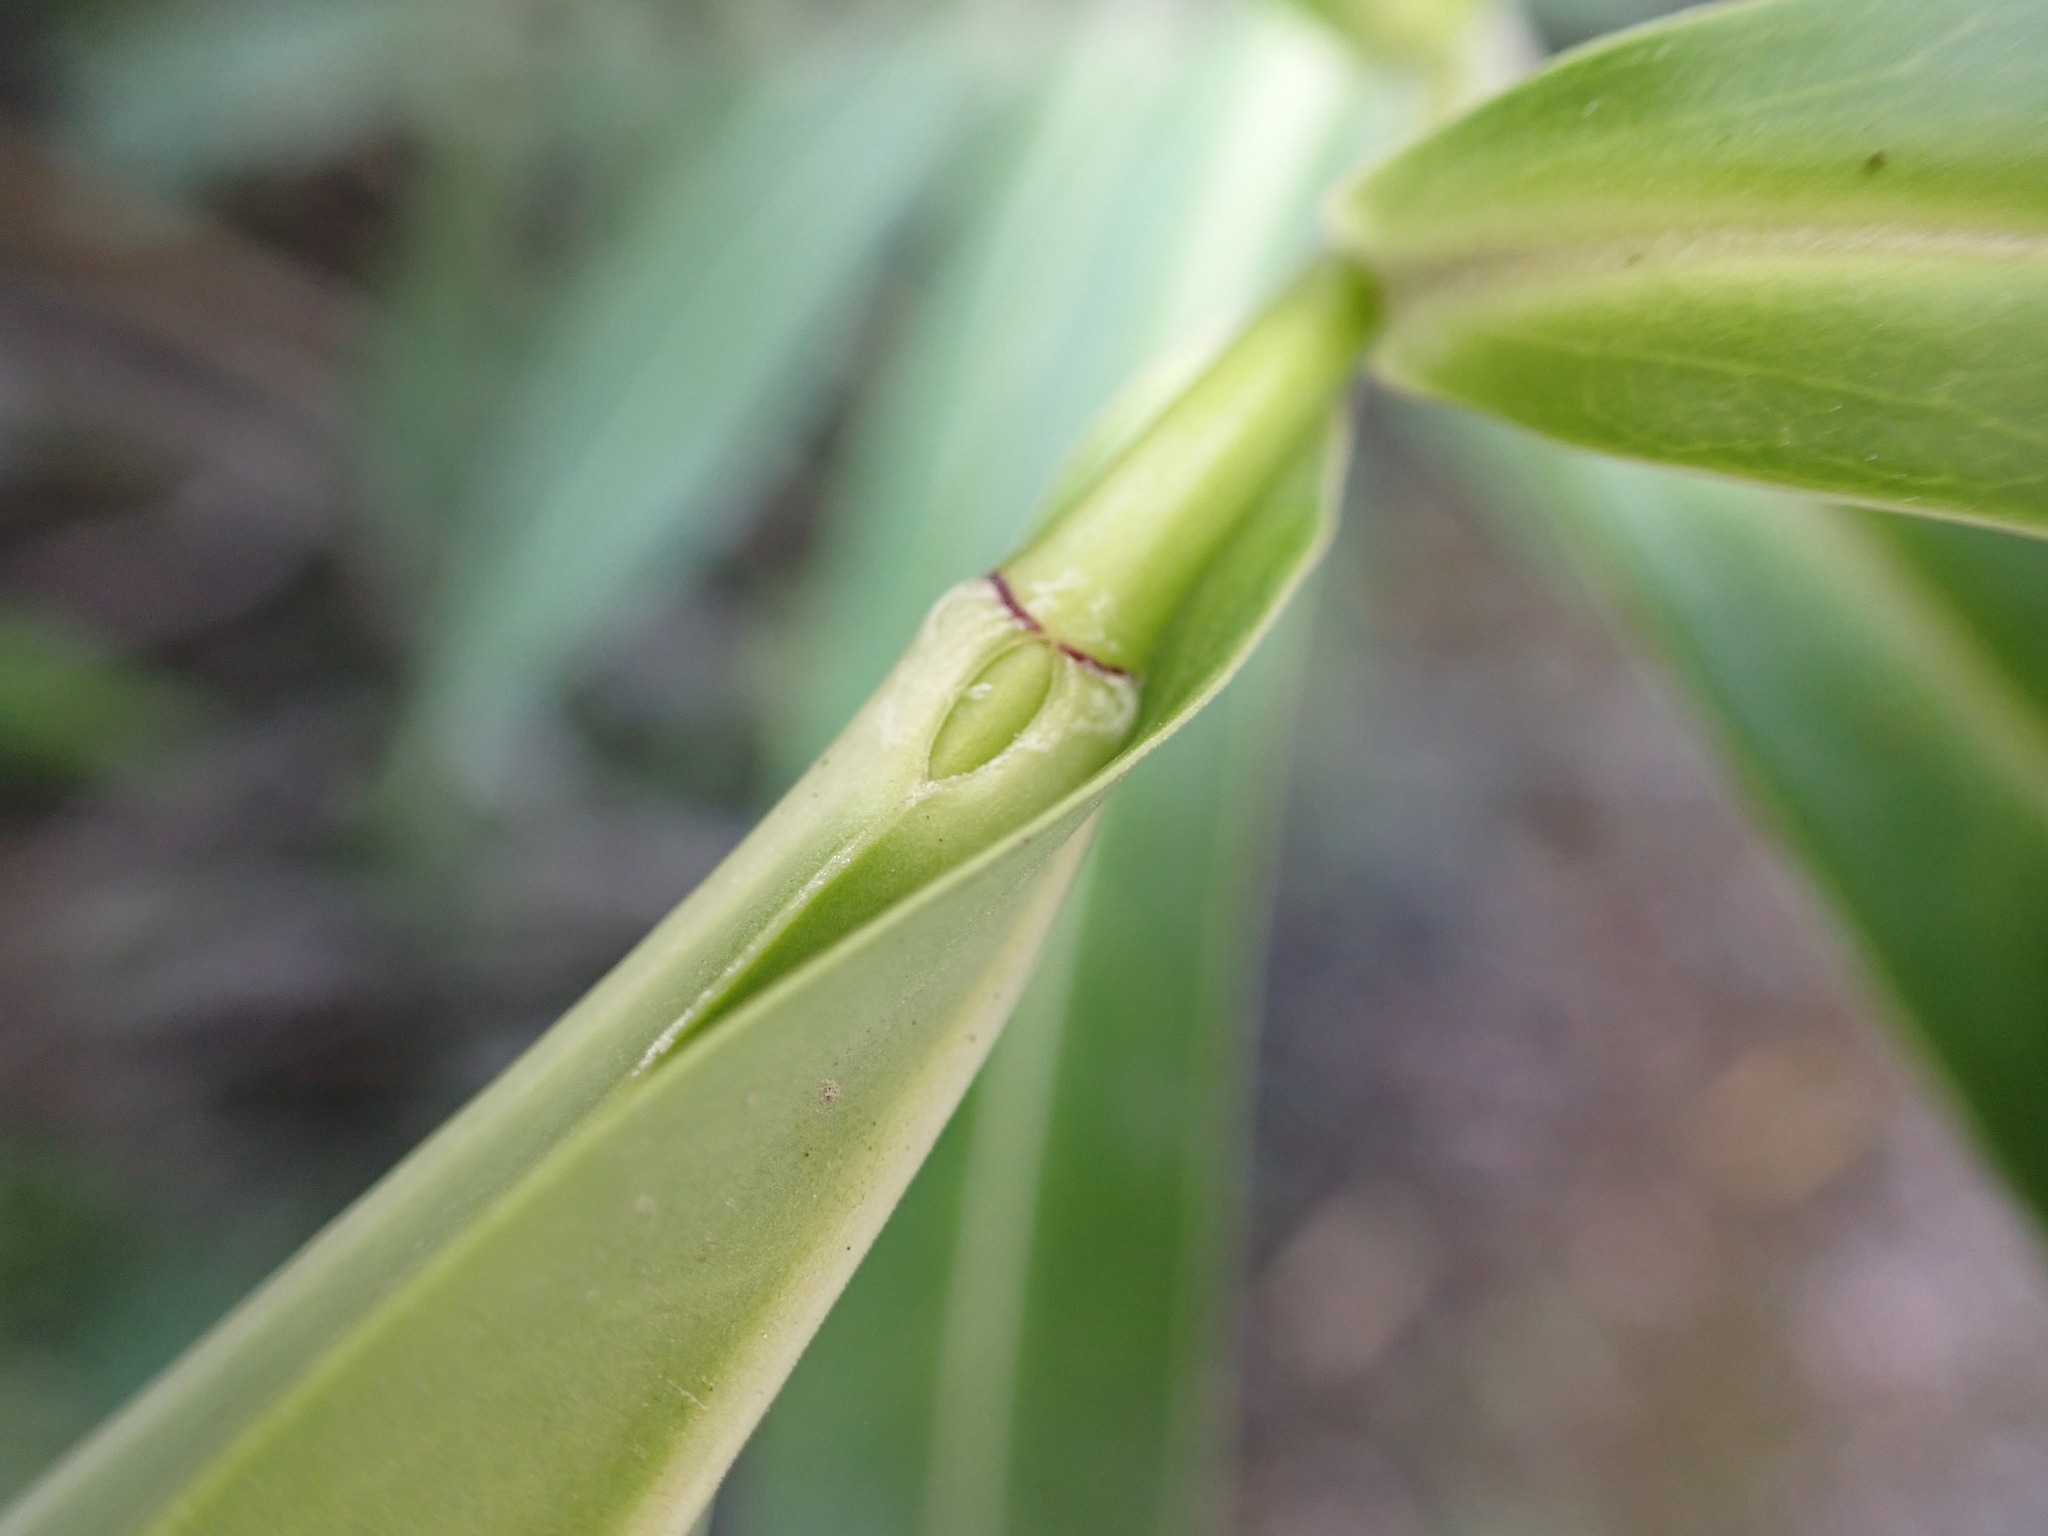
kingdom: Plantae
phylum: Tracheophyta
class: Magnoliopsida
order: Lamiales
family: Plantaginaceae
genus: Veronica
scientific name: Veronica salicifolia
